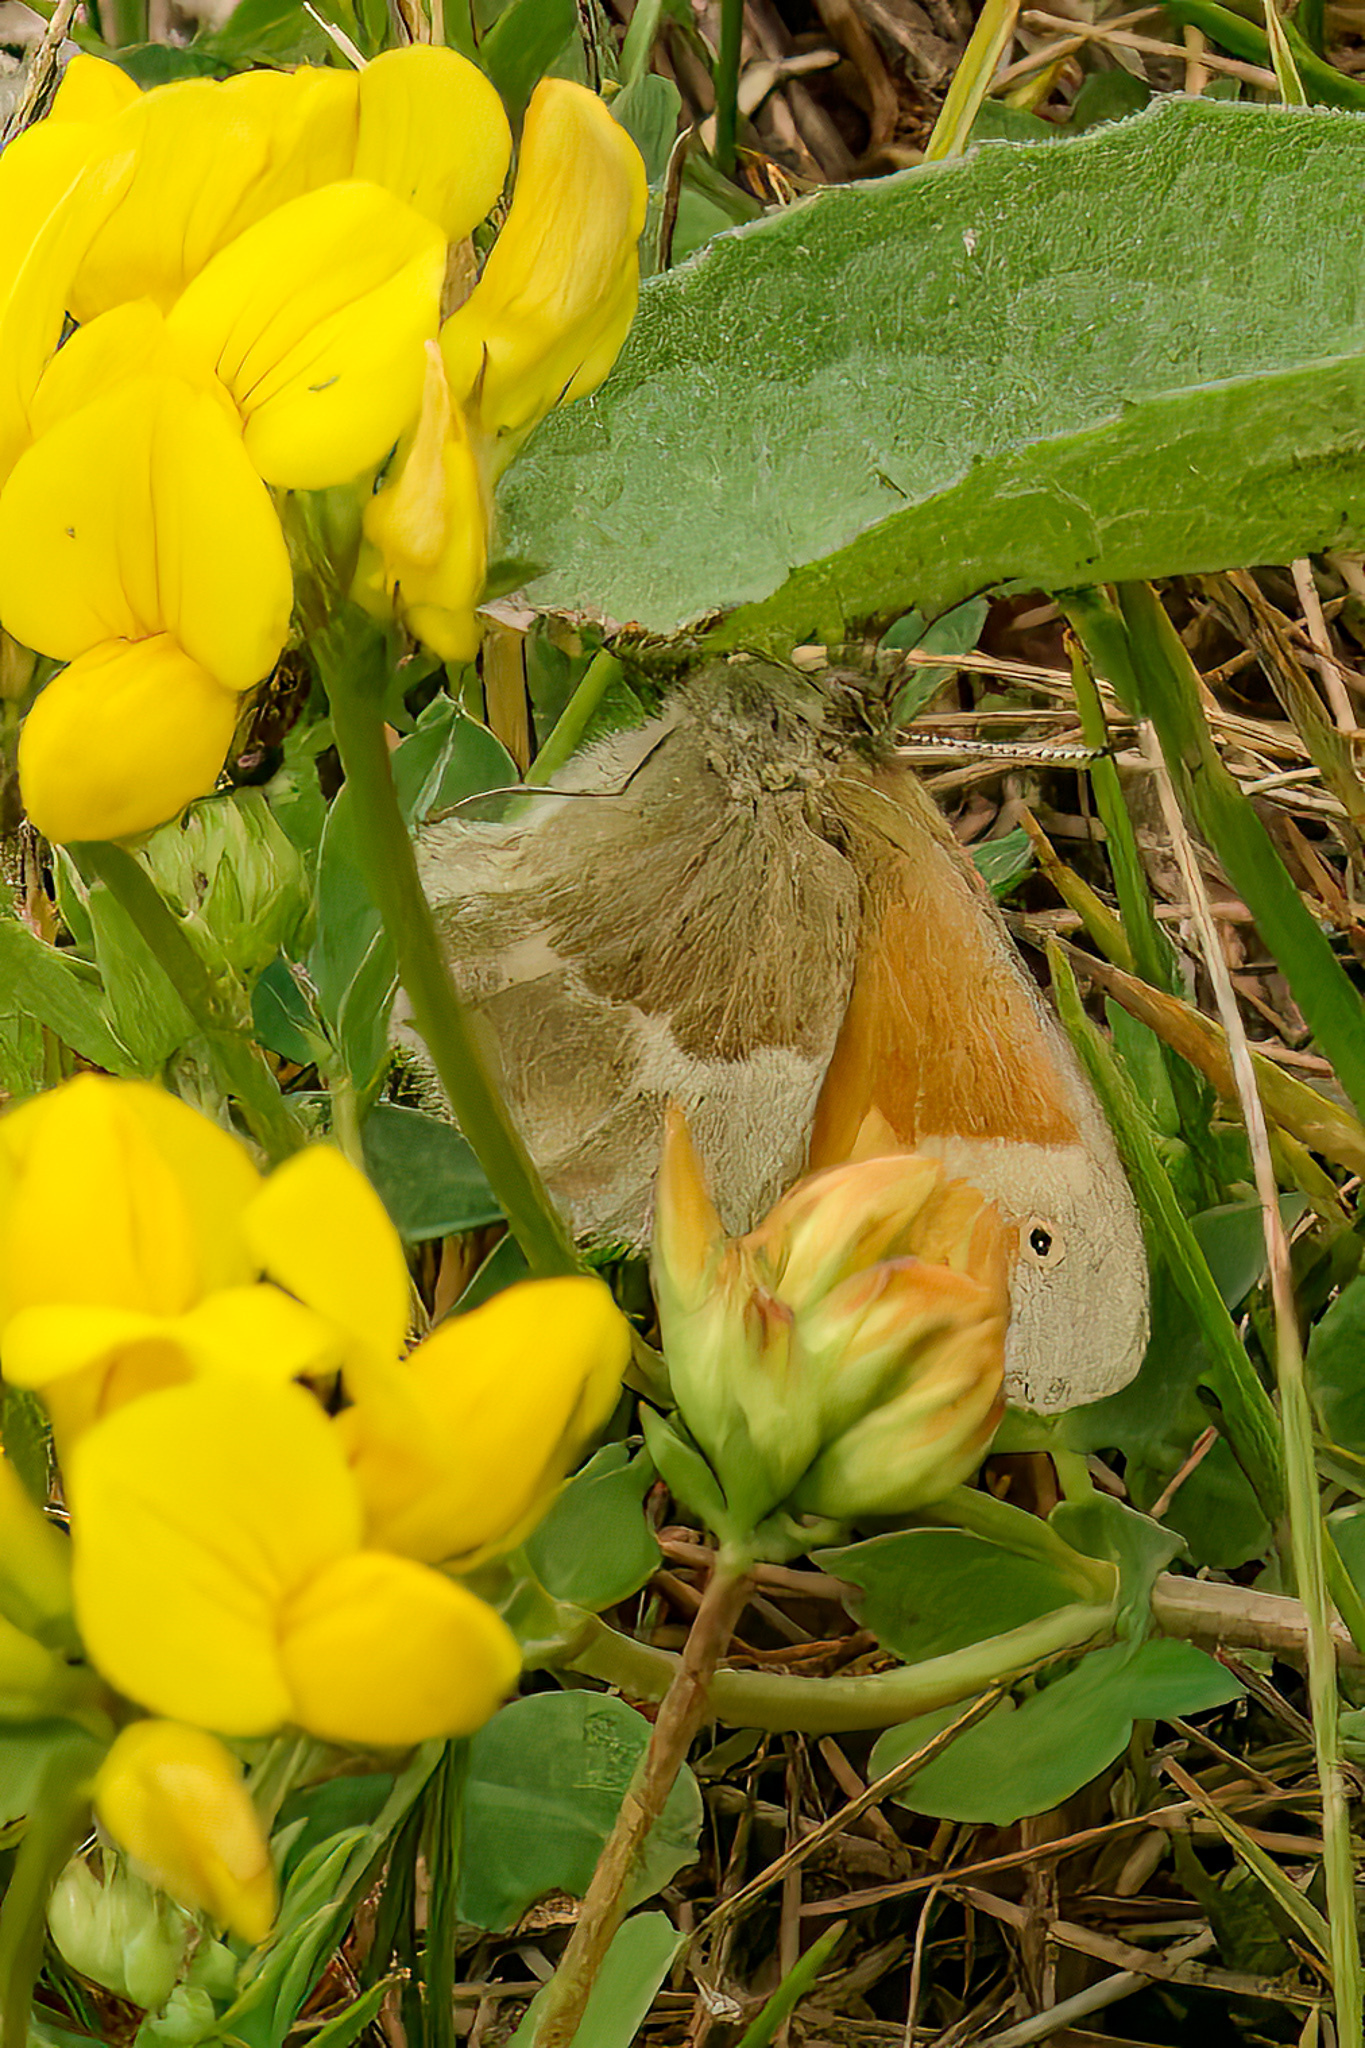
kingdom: Animalia
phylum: Arthropoda
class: Insecta
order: Lepidoptera
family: Nymphalidae
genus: Coenonympha
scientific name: Coenonympha california
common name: Common ringlet
